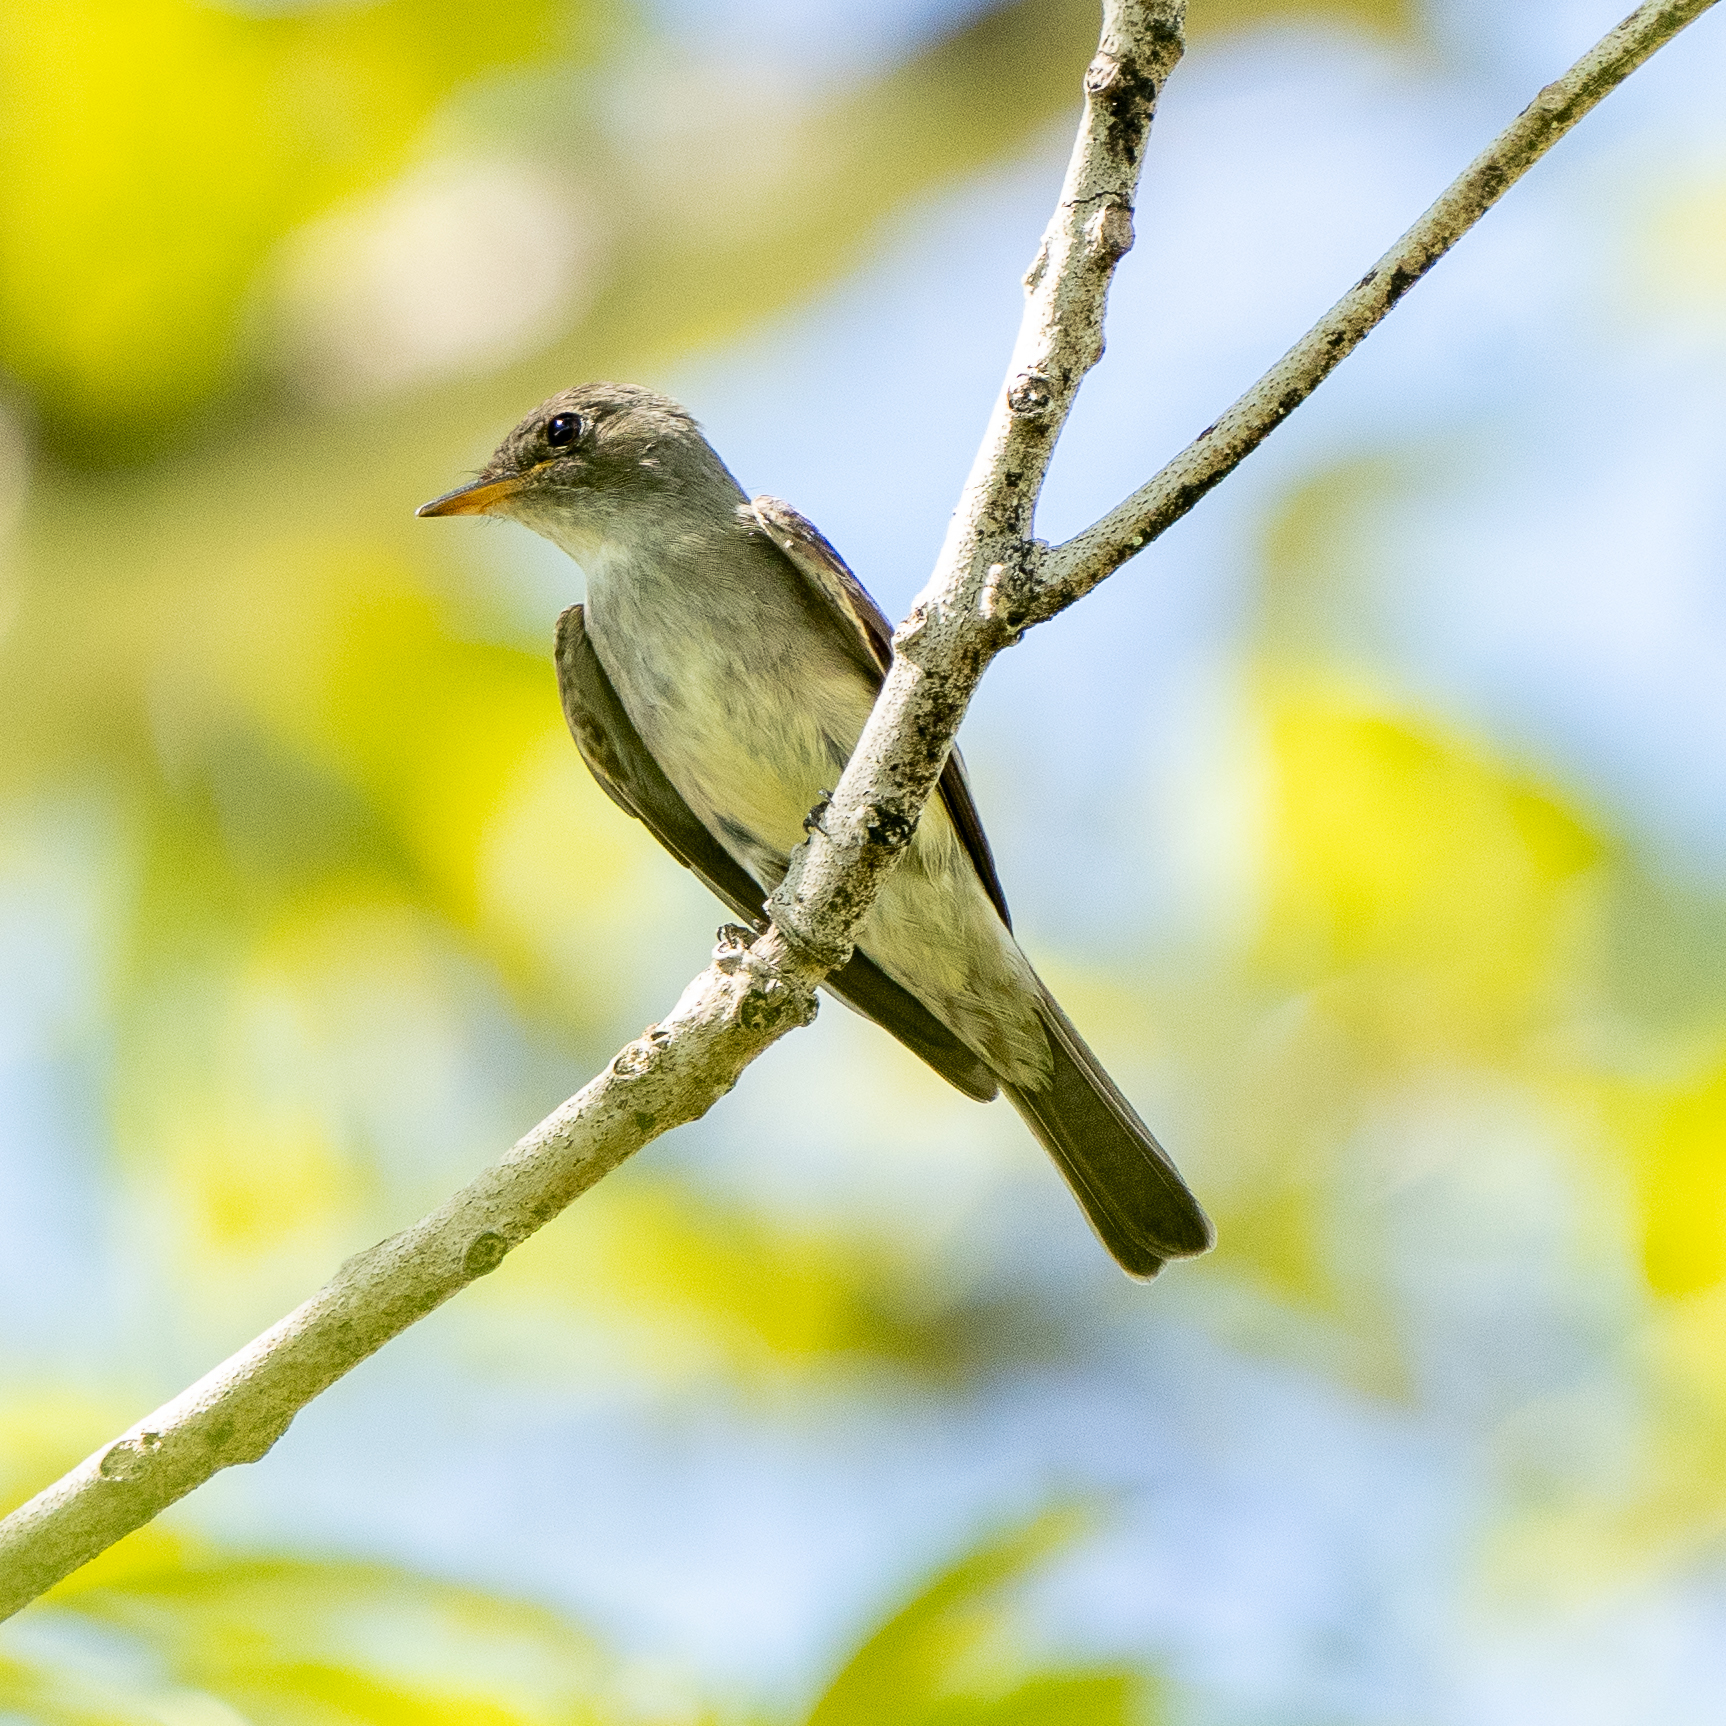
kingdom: Animalia
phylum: Chordata
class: Aves
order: Passeriformes
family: Tyrannidae
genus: Contopus
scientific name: Contopus virens
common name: Eastern wood-pewee
